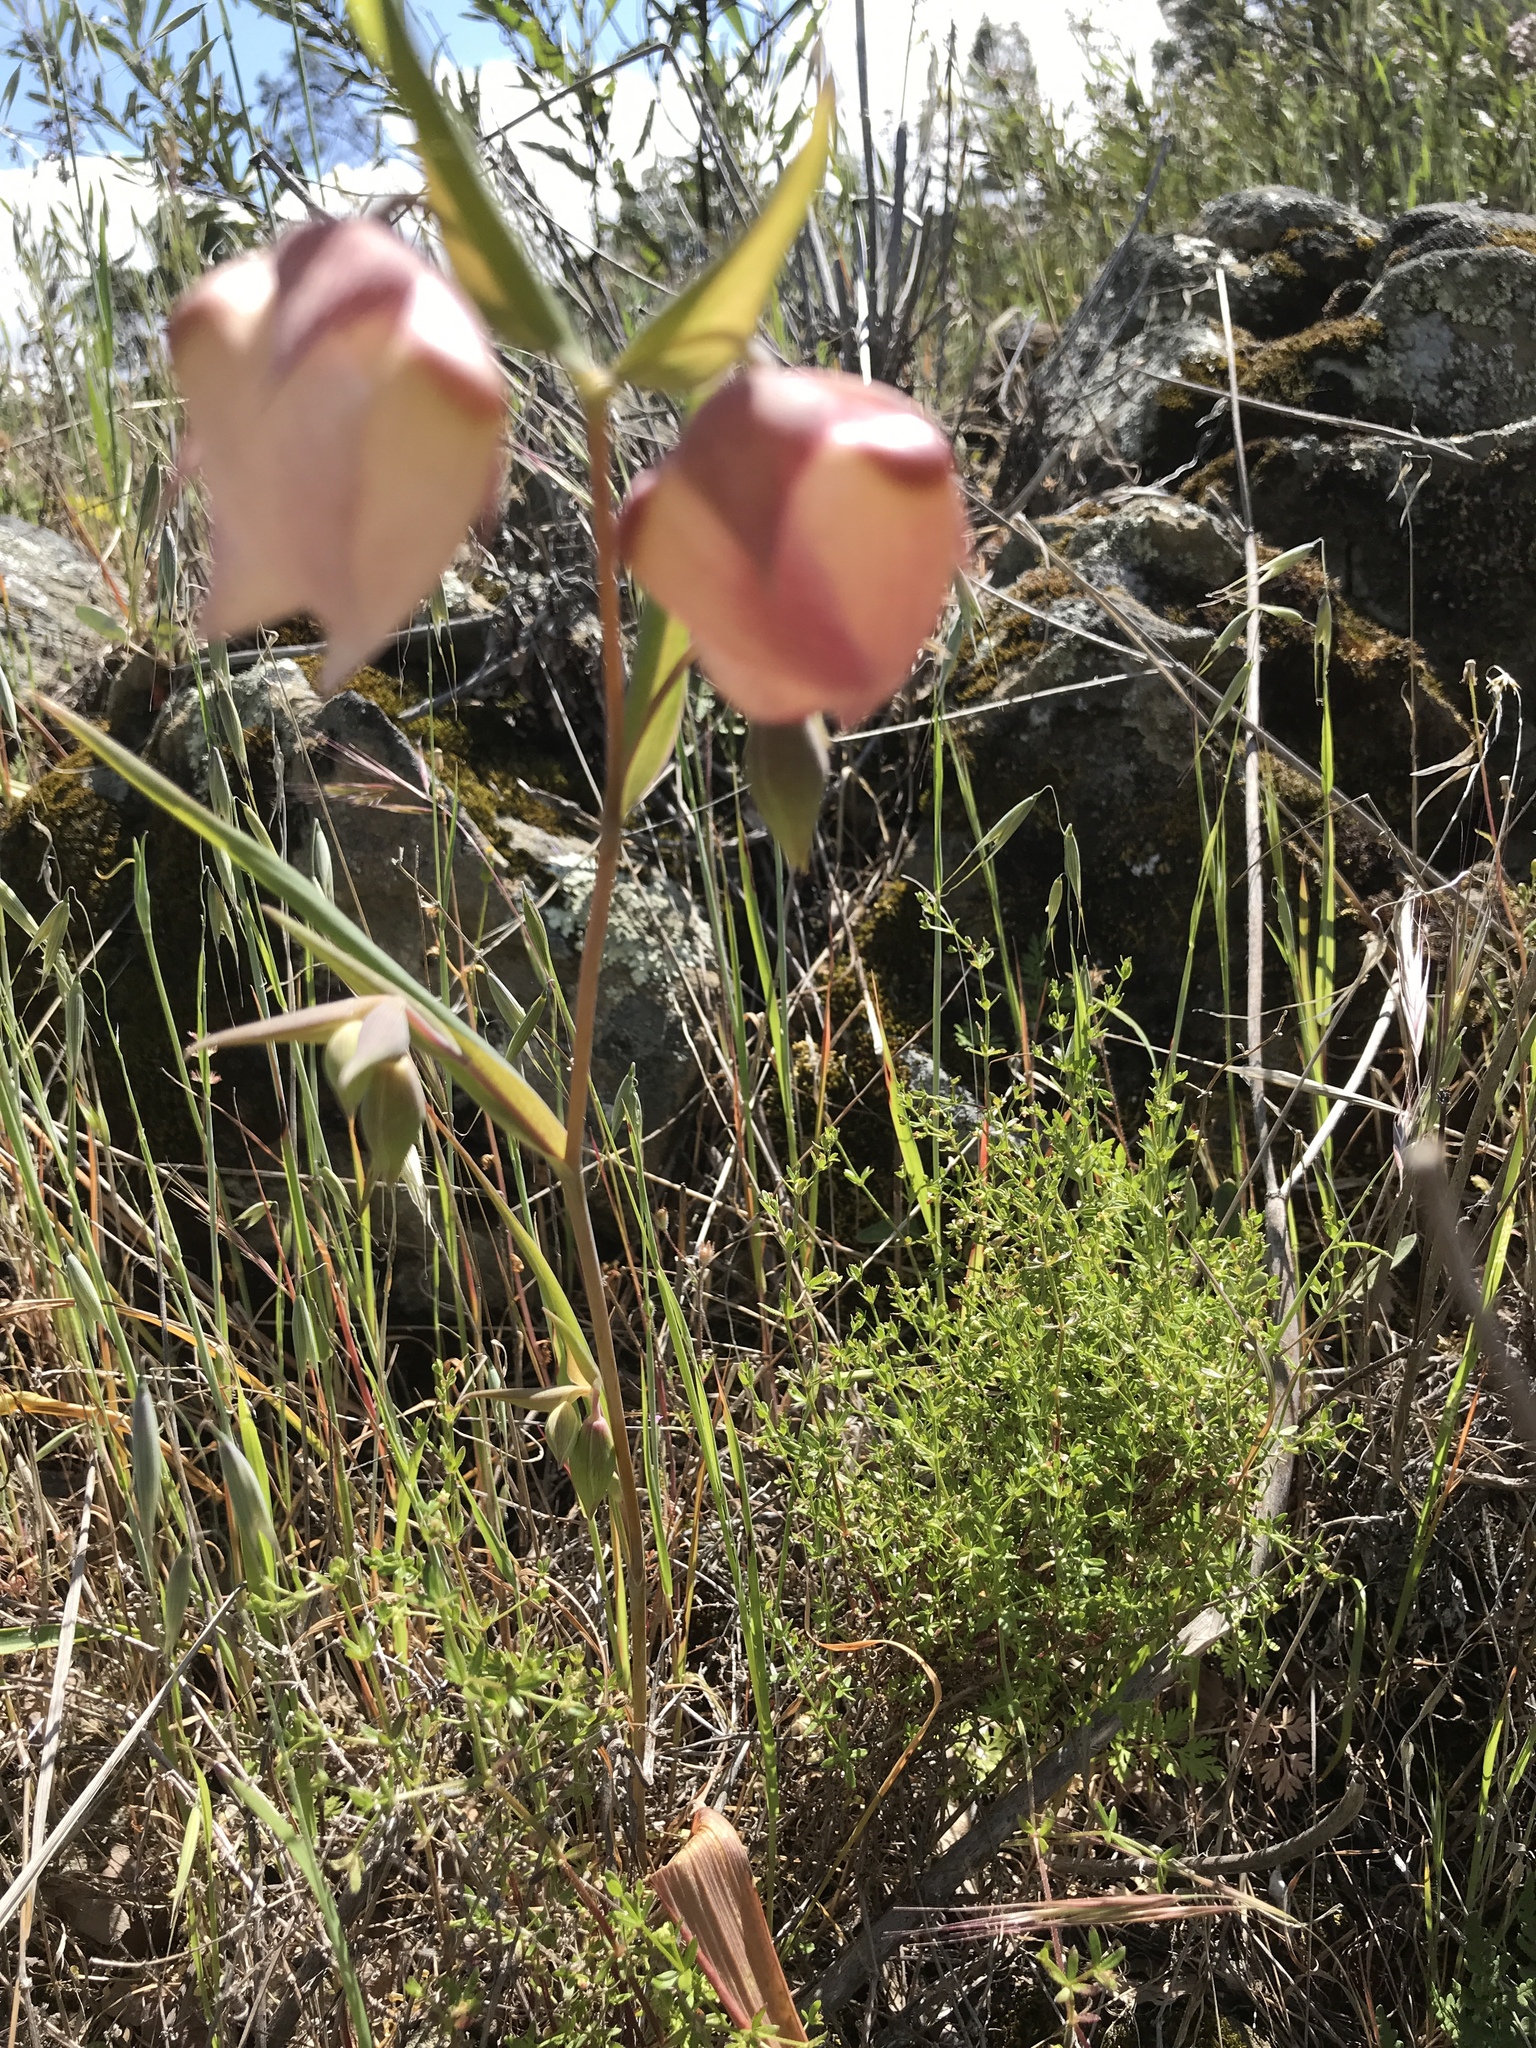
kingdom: Plantae
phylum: Tracheophyta
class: Liliopsida
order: Liliales
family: Liliaceae
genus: Calochortus
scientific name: Calochortus albus
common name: Fairy-lantern
